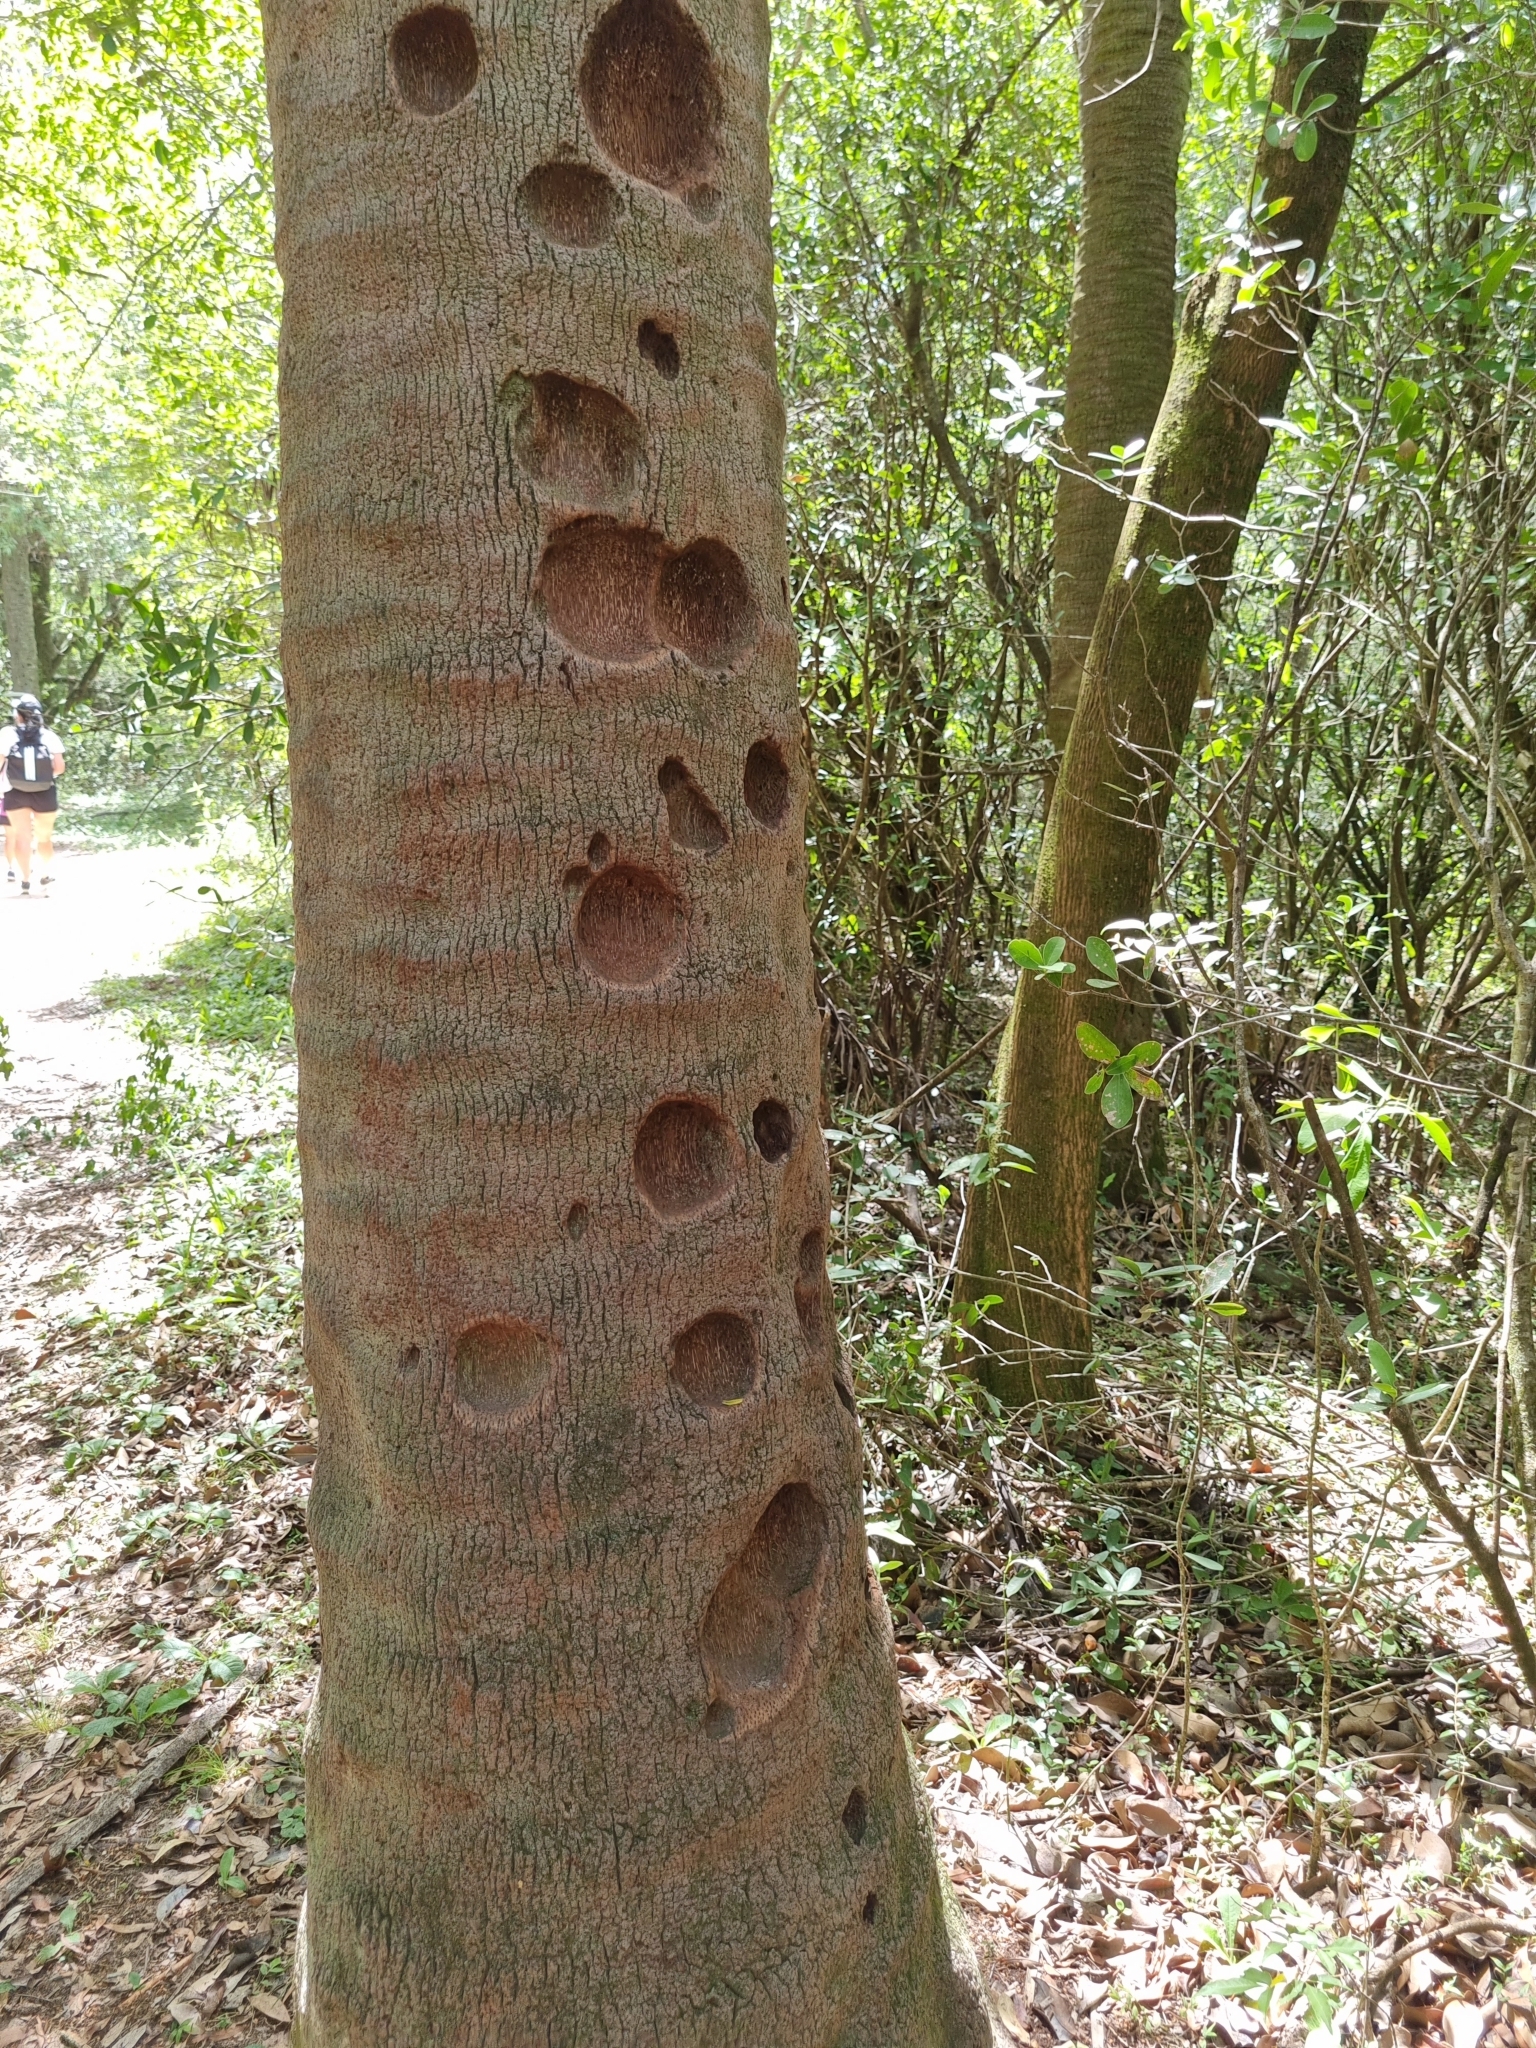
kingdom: Plantae
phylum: Tracheophyta
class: Liliopsida
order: Arecales
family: Arecaceae
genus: Syagrus
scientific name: Syagrus romanzoffiana
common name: Queen palm
